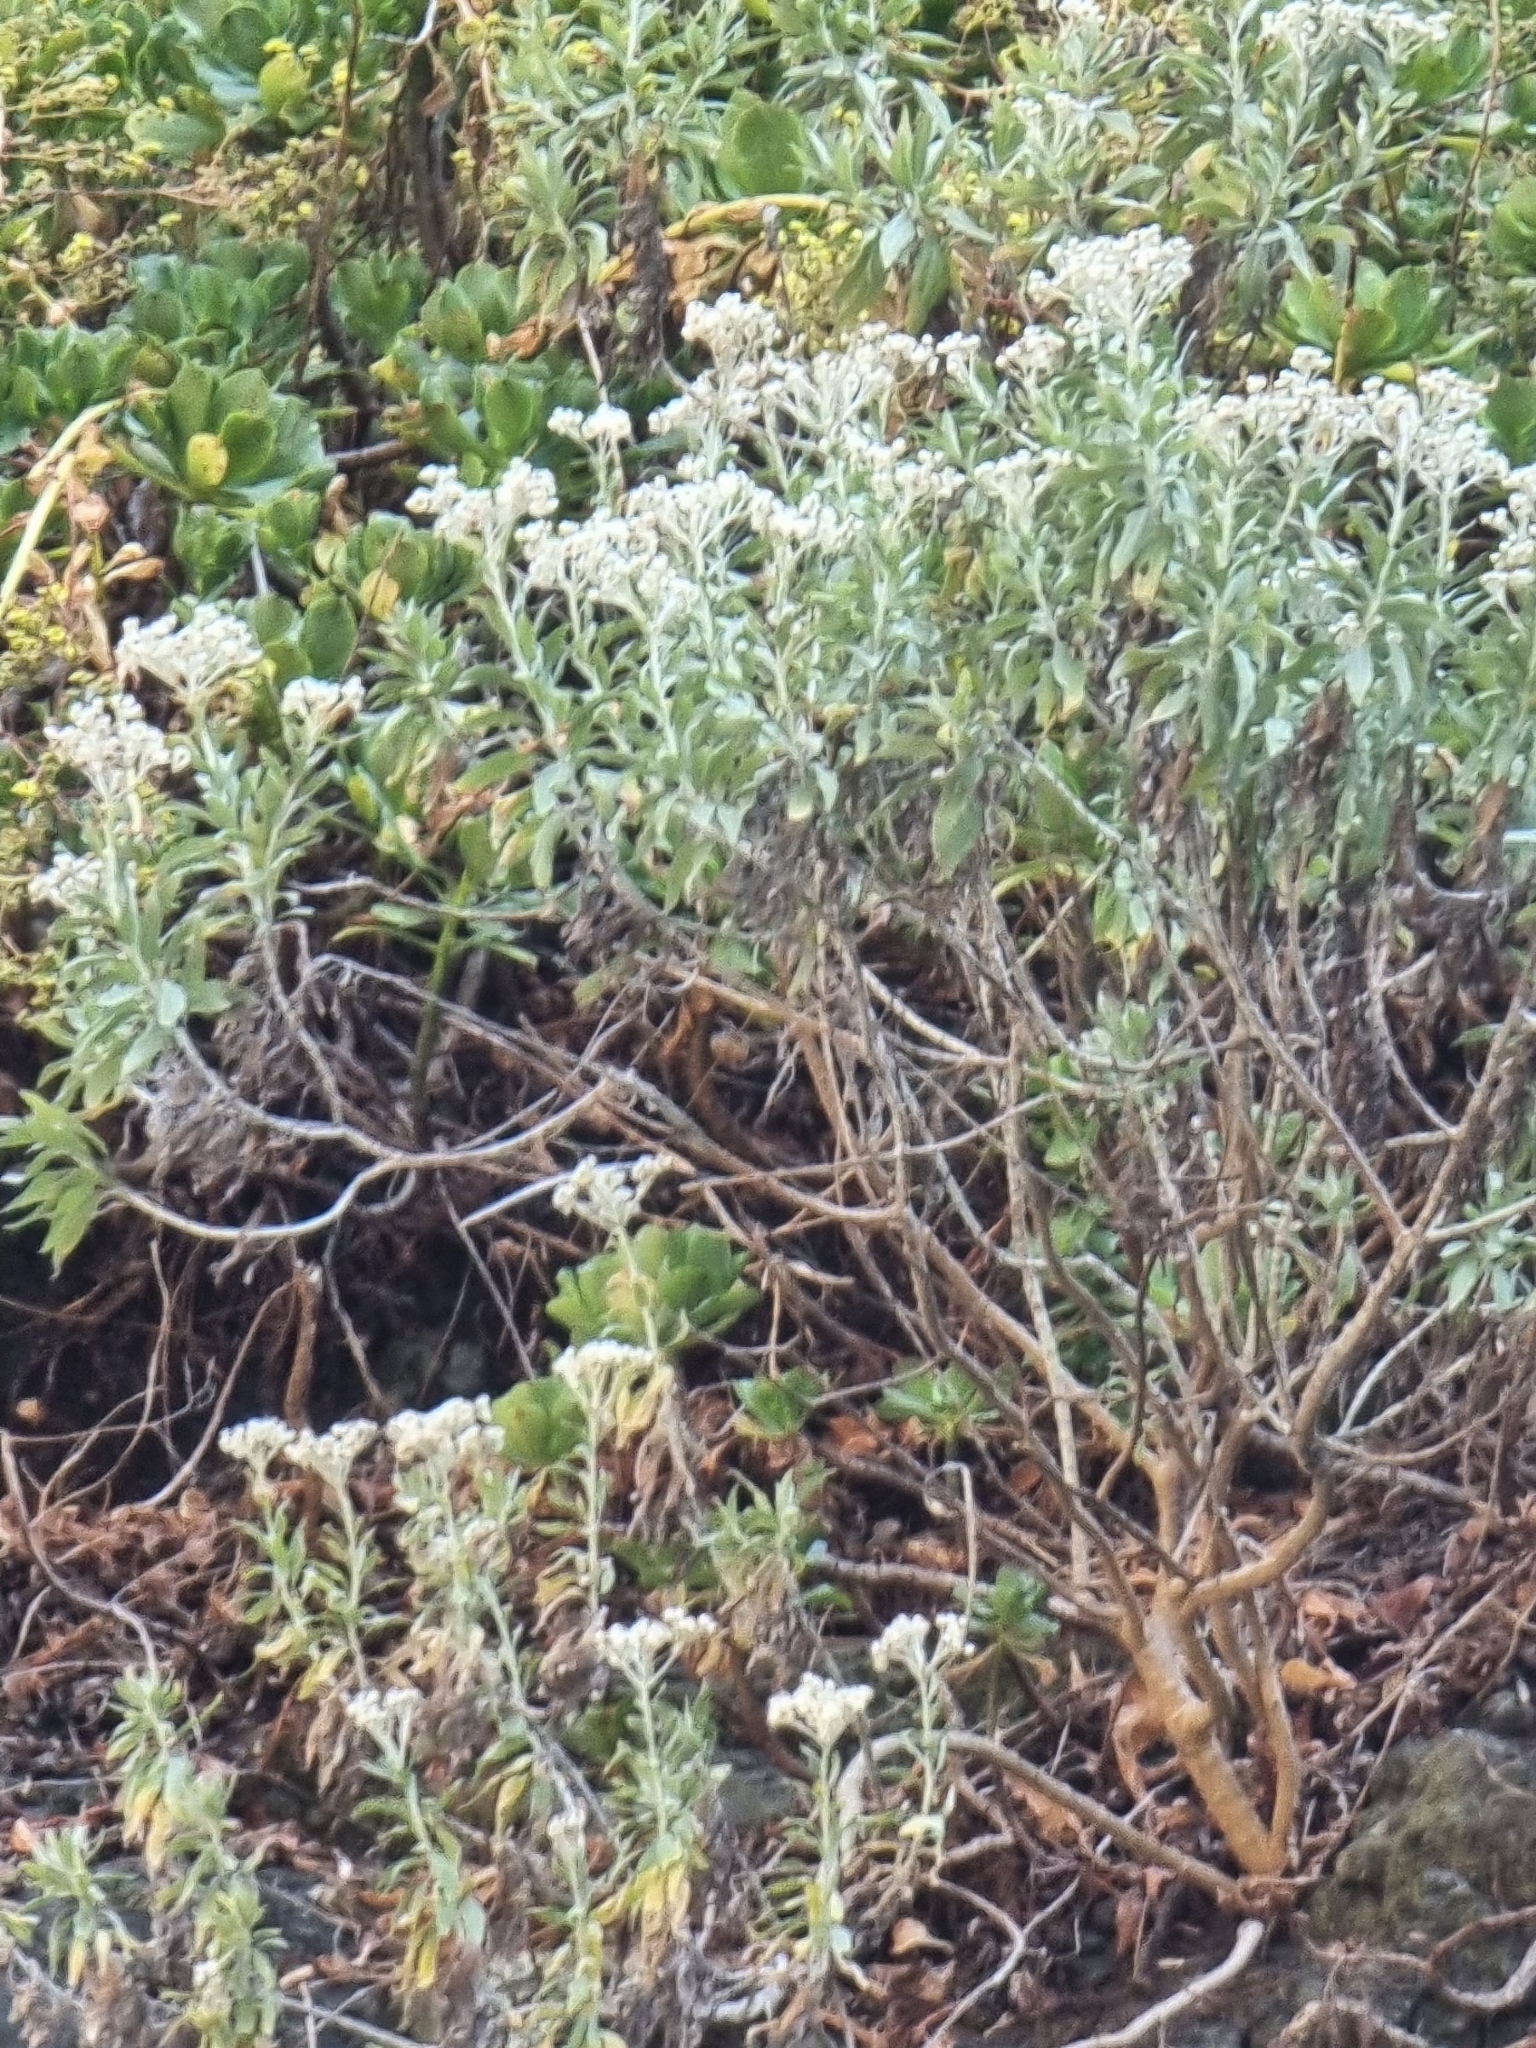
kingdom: Plantae
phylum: Tracheophyta
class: Magnoliopsida
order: Asterales
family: Asteraceae
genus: Helichrysum
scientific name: Helichrysum melaleucum
